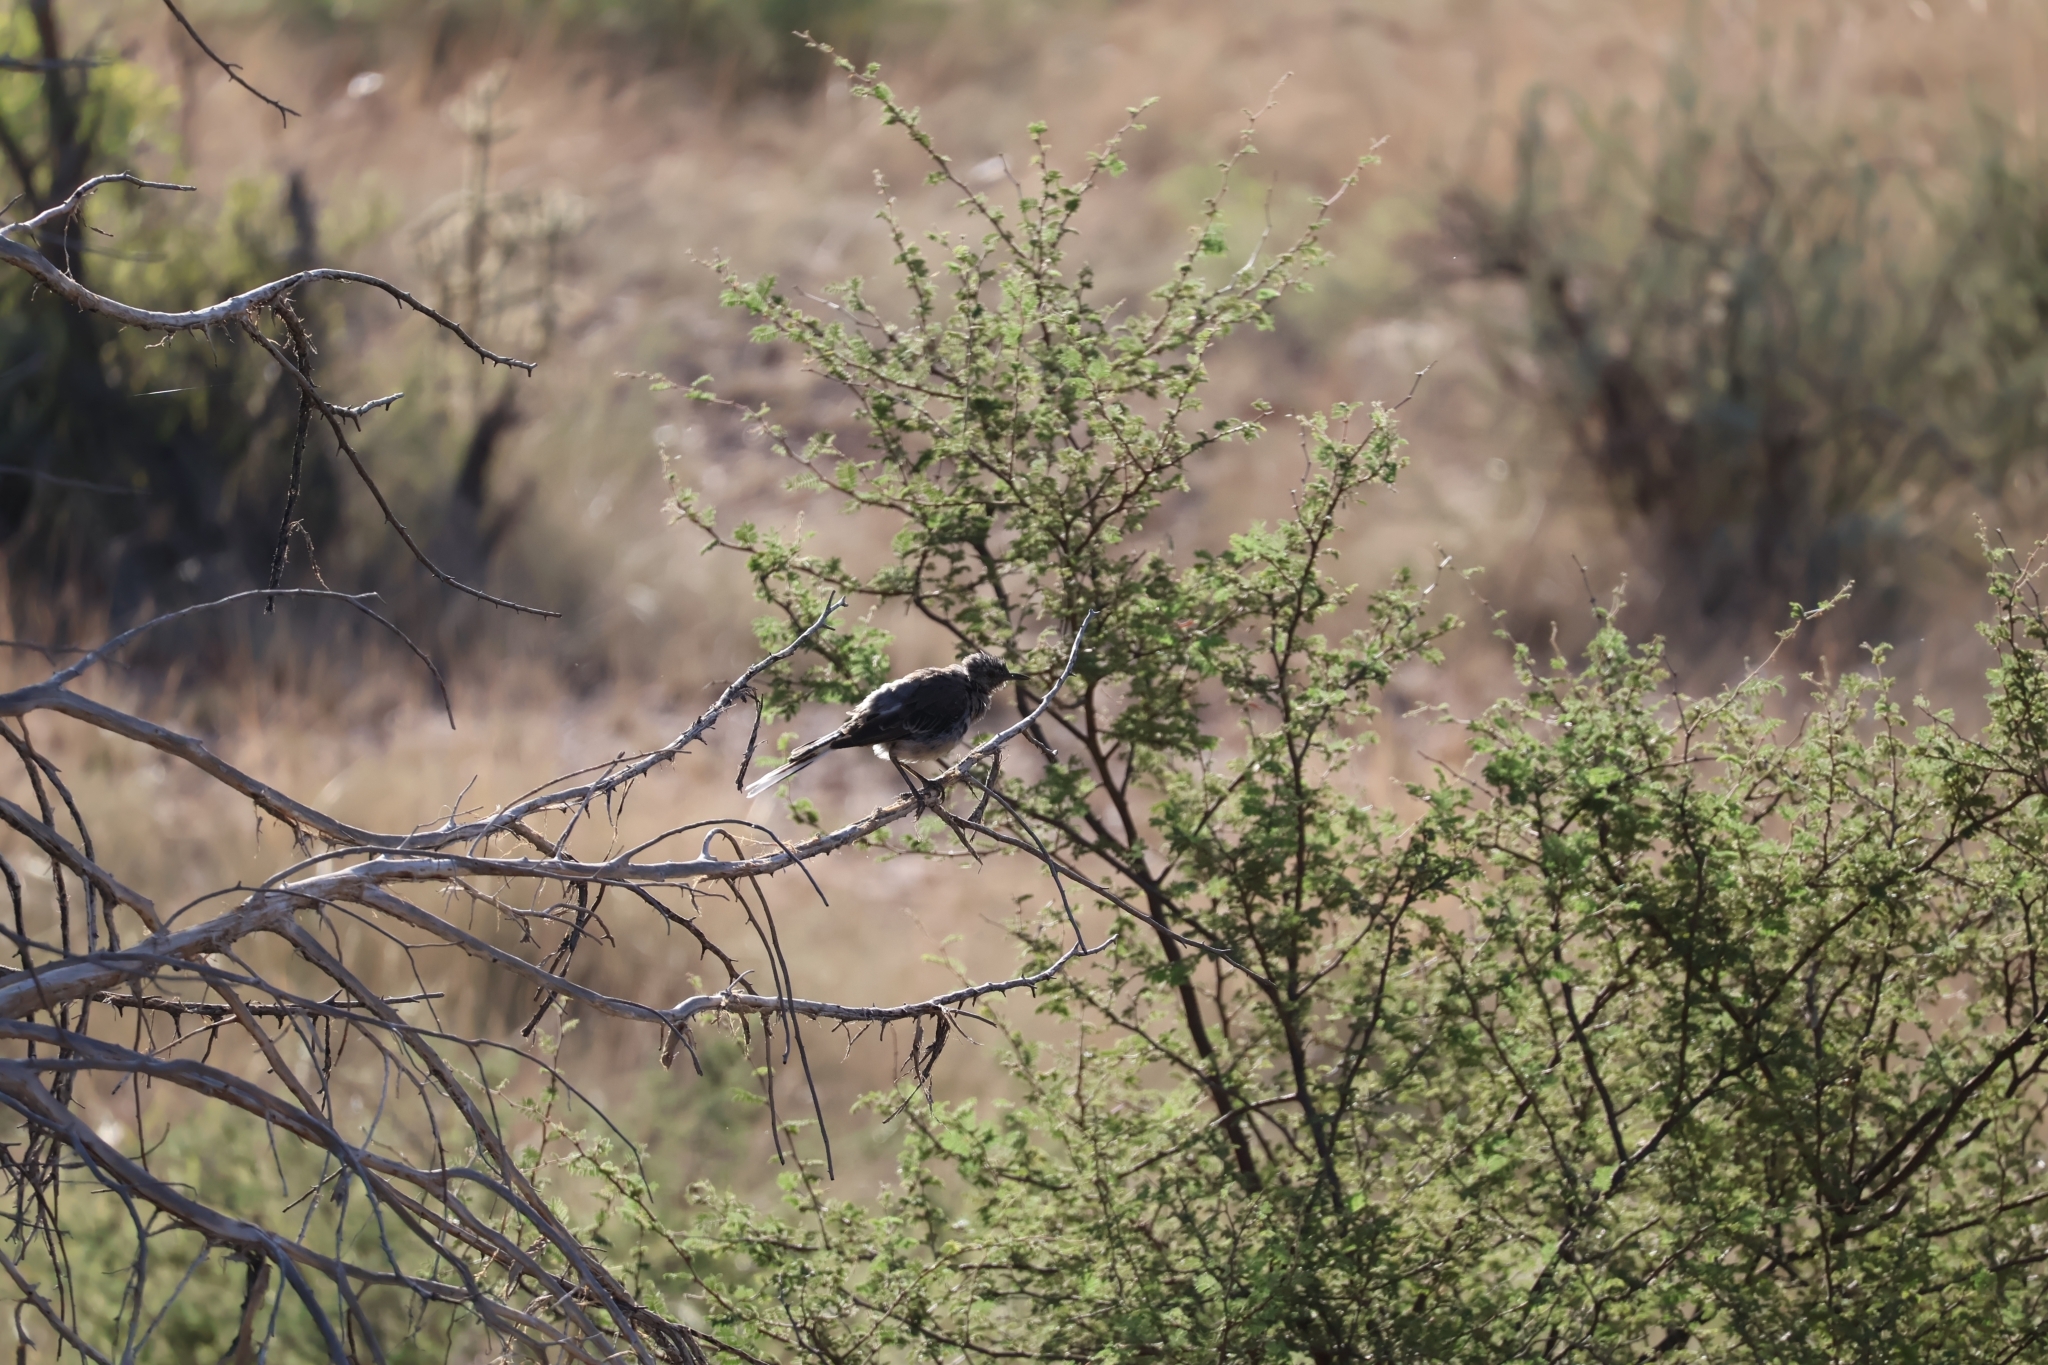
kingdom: Animalia
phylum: Chordata
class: Aves
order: Passeriformes
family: Mimidae
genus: Mimus
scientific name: Mimus polyglottos
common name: Northern mockingbird
